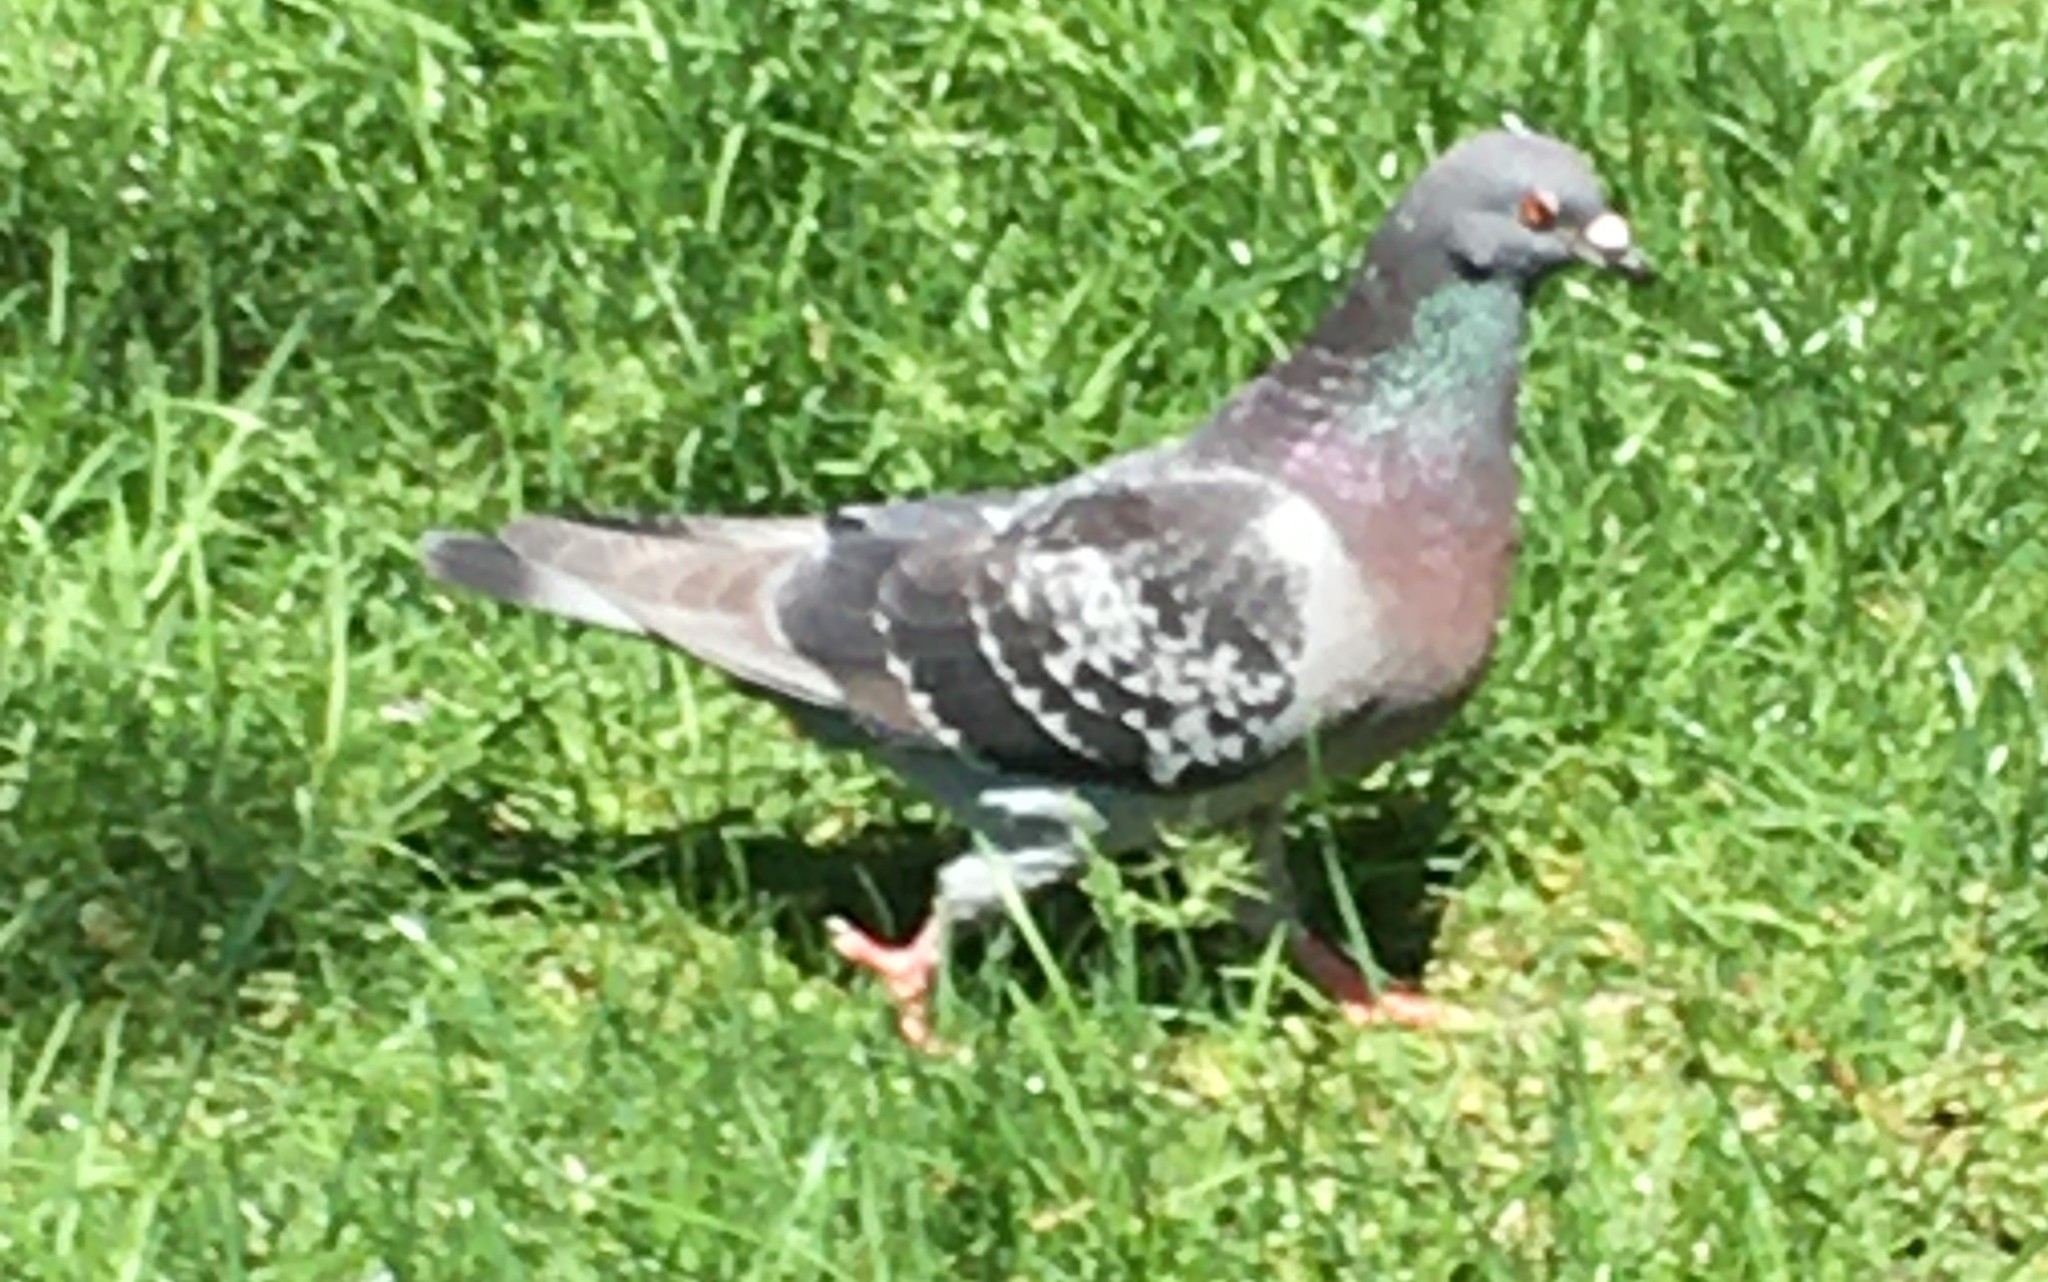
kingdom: Animalia
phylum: Chordata
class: Aves
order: Columbiformes
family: Columbidae
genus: Columba
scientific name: Columba livia
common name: Rock pigeon
